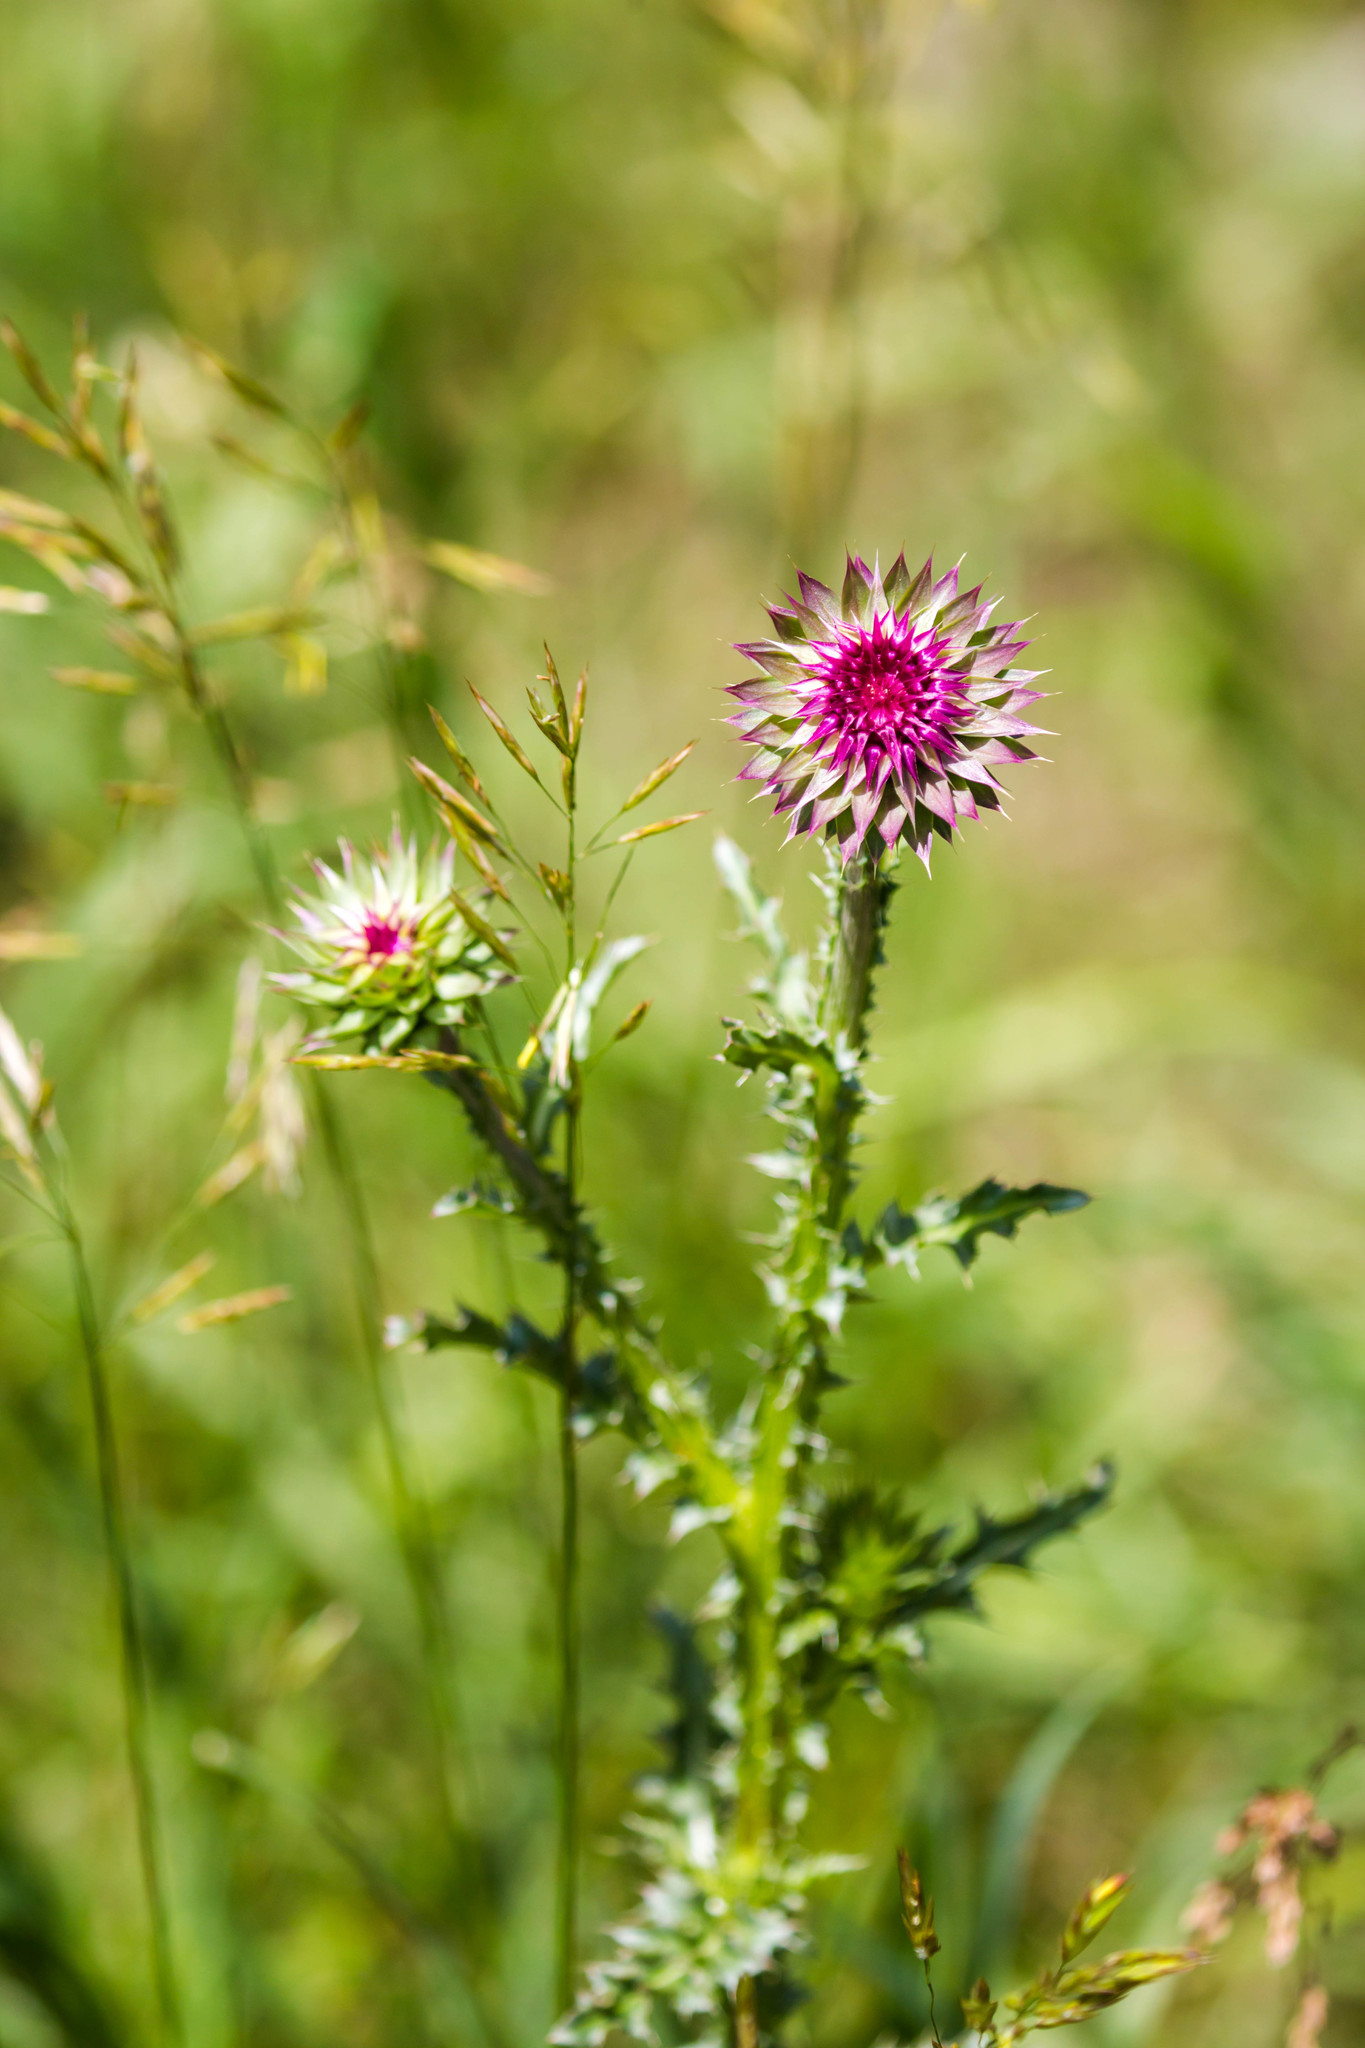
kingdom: Plantae
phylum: Tracheophyta
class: Magnoliopsida
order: Asterales
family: Asteraceae
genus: Carduus
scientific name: Carduus nutans
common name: Musk thistle
